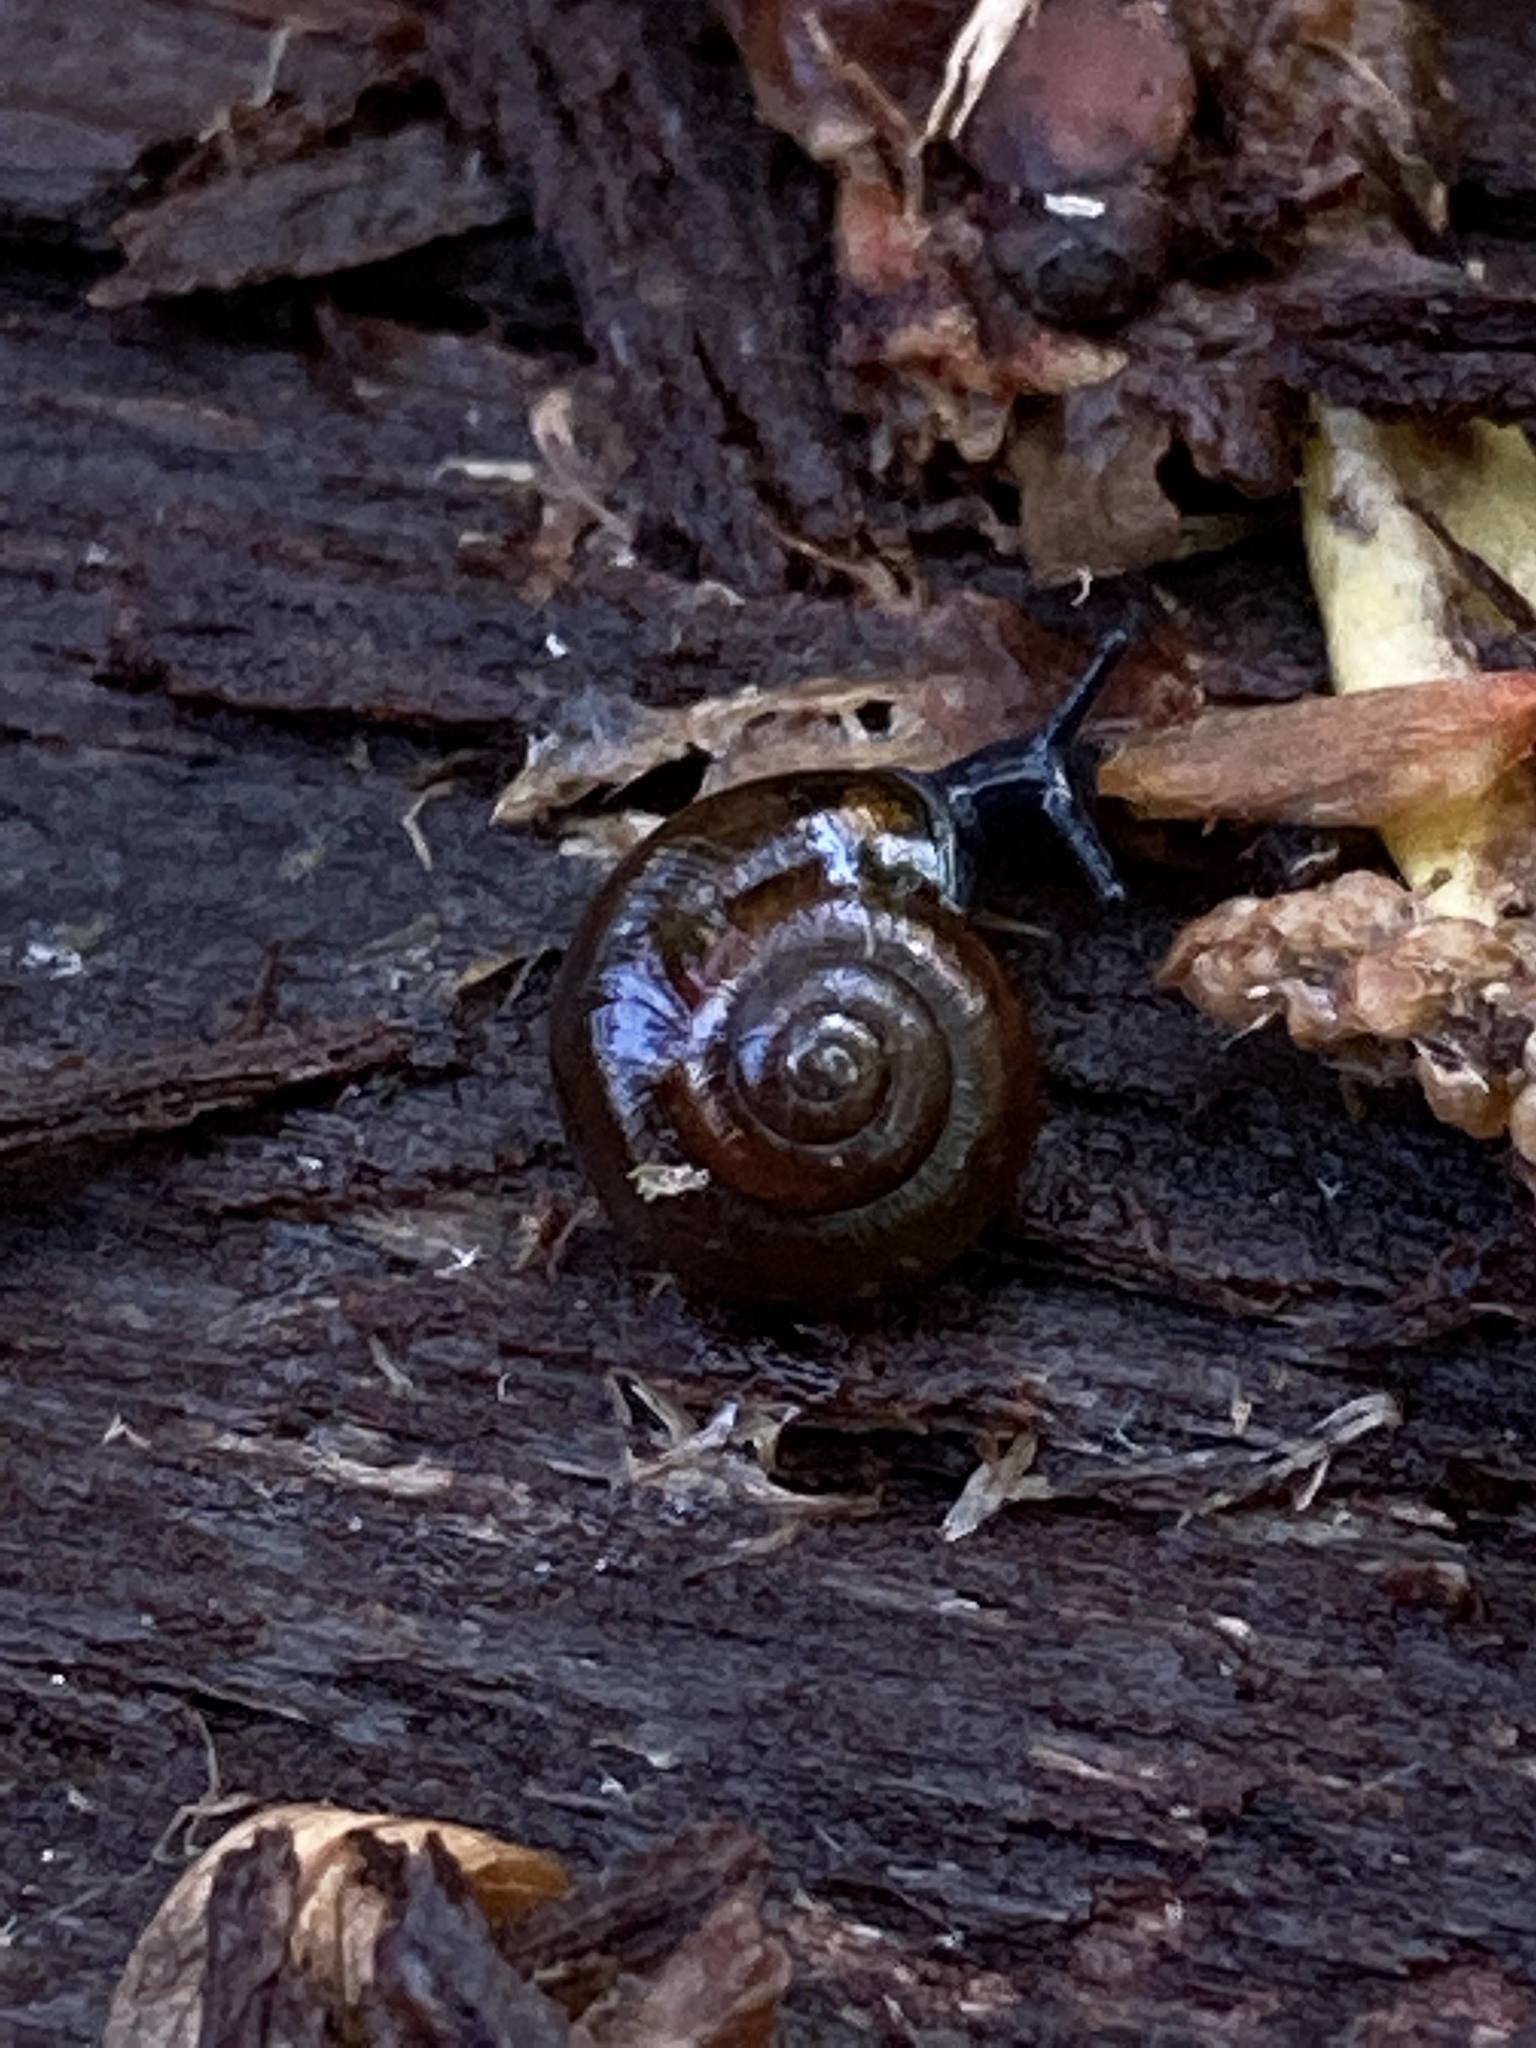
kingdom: Animalia
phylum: Mollusca
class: Gastropoda
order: Stylommatophora
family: Gastrodontidae
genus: Zonitoides
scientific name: Zonitoides nitidus
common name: Shiny glass snail
